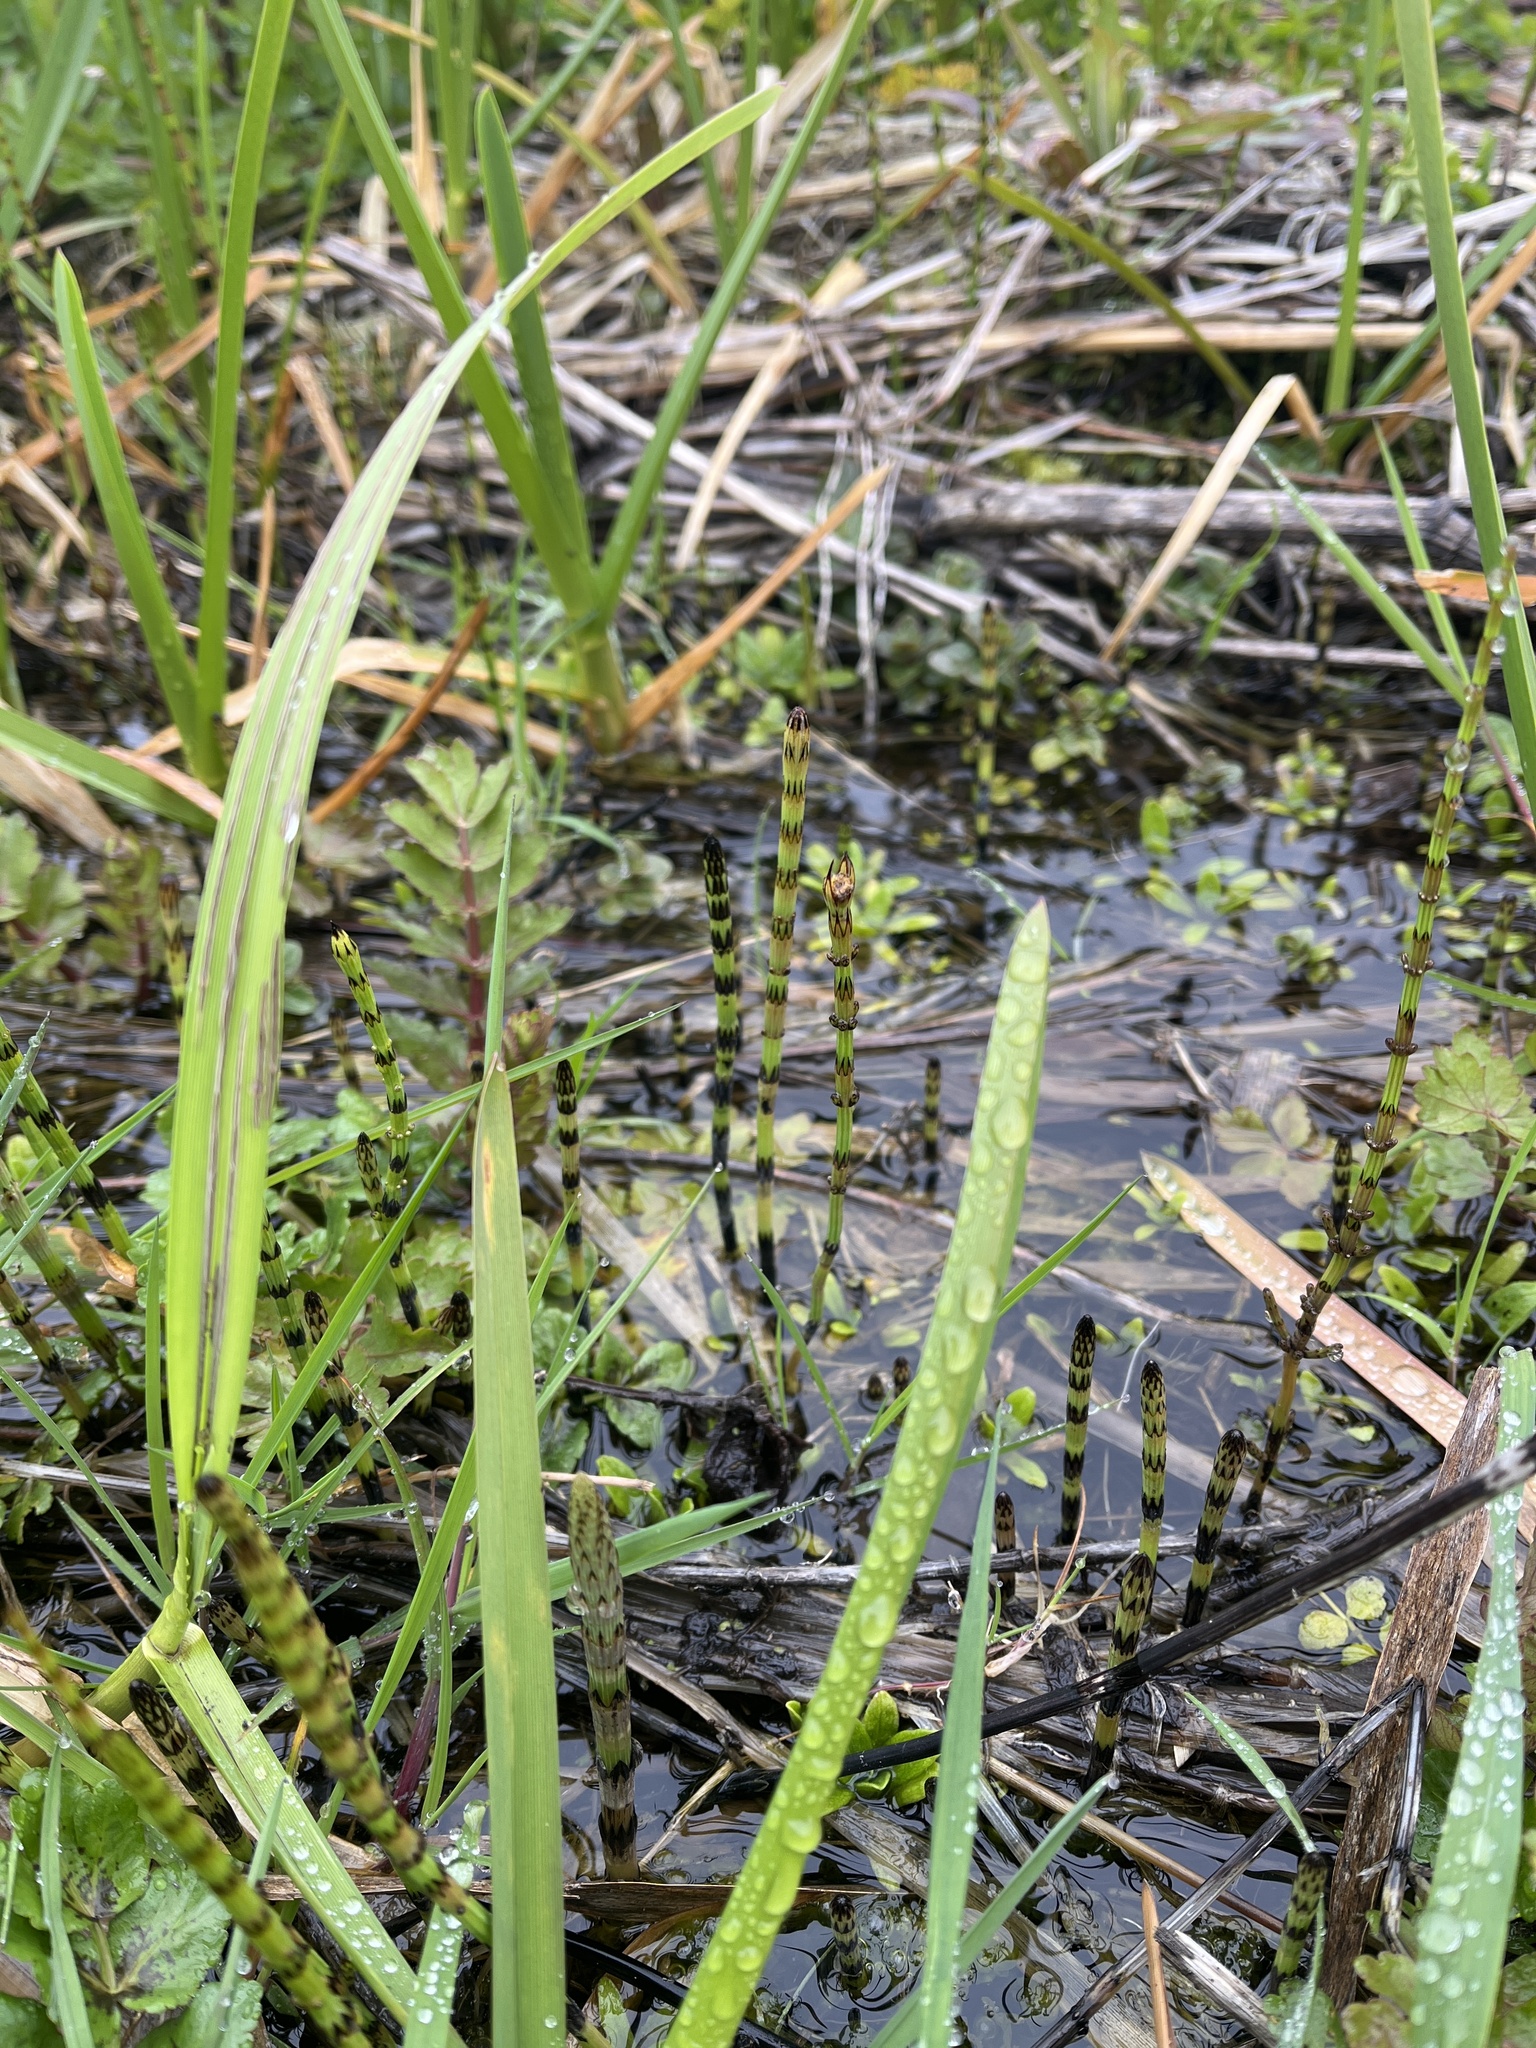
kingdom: Plantae
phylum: Tracheophyta
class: Polypodiopsida
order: Equisetales
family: Equisetaceae
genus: Equisetum
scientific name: Equisetum palustre
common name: Marsh horsetail
